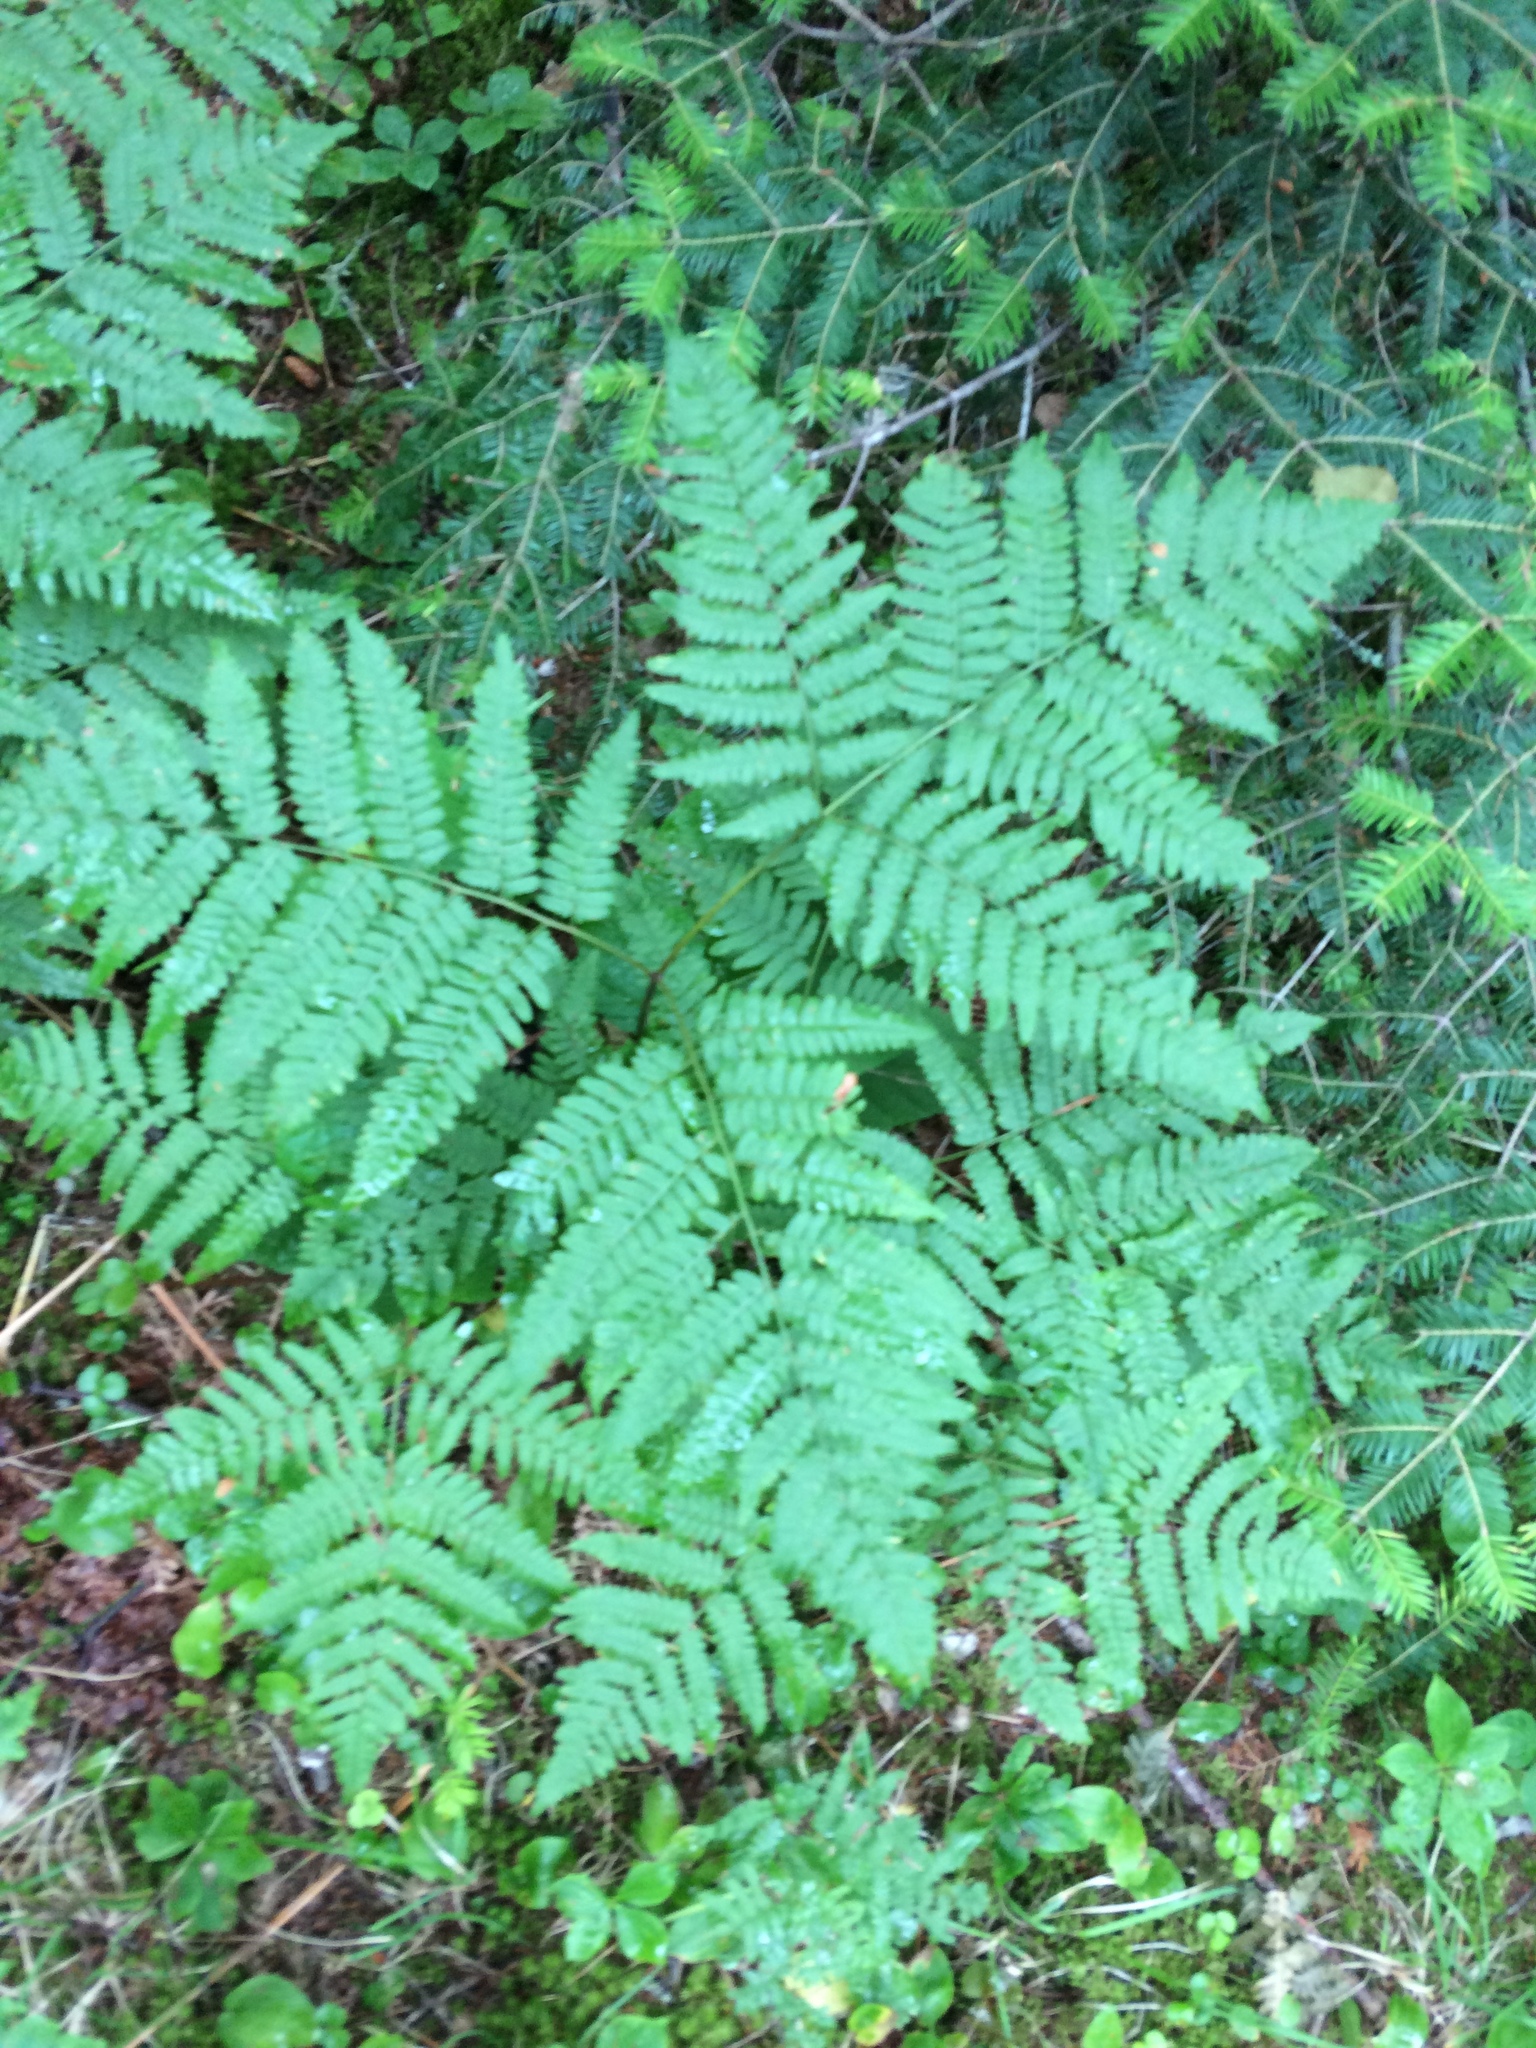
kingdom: Plantae
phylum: Tracheophyta
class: Polypodiopsida
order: Polypodiales
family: Dennstaedtiaceae
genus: Pteridium
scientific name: Pteridium aquilinum
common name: Bracken
